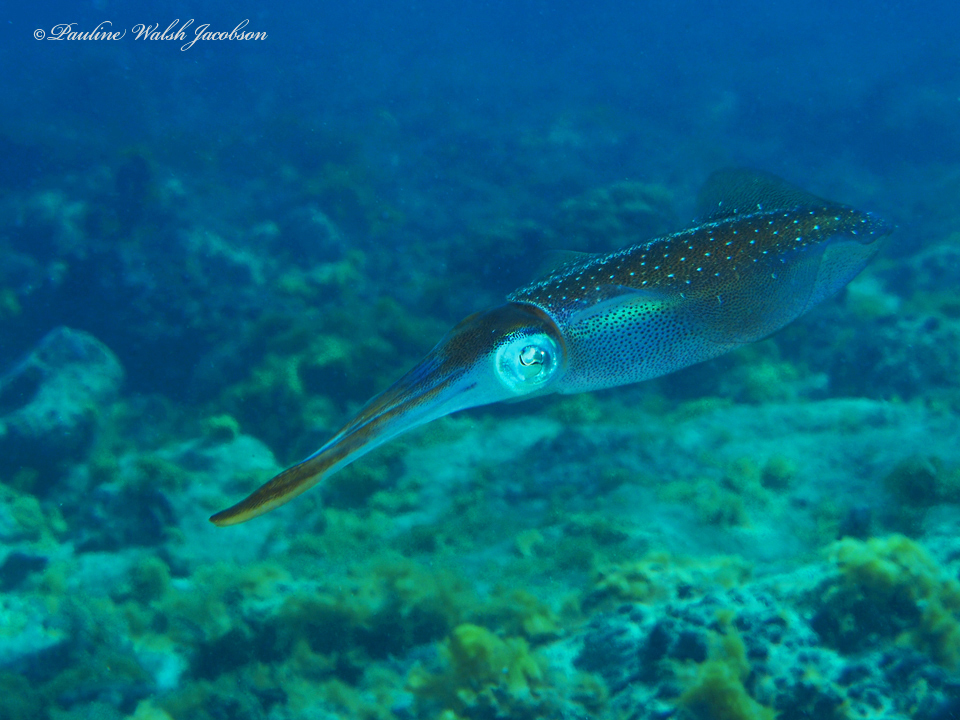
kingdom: Animalia
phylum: Mollusca
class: Cephalopoda
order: Myopsida
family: Loliginidae
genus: Sepioteuthis
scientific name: Sepioteuthis sepioidea
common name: Caribbean reef squid
